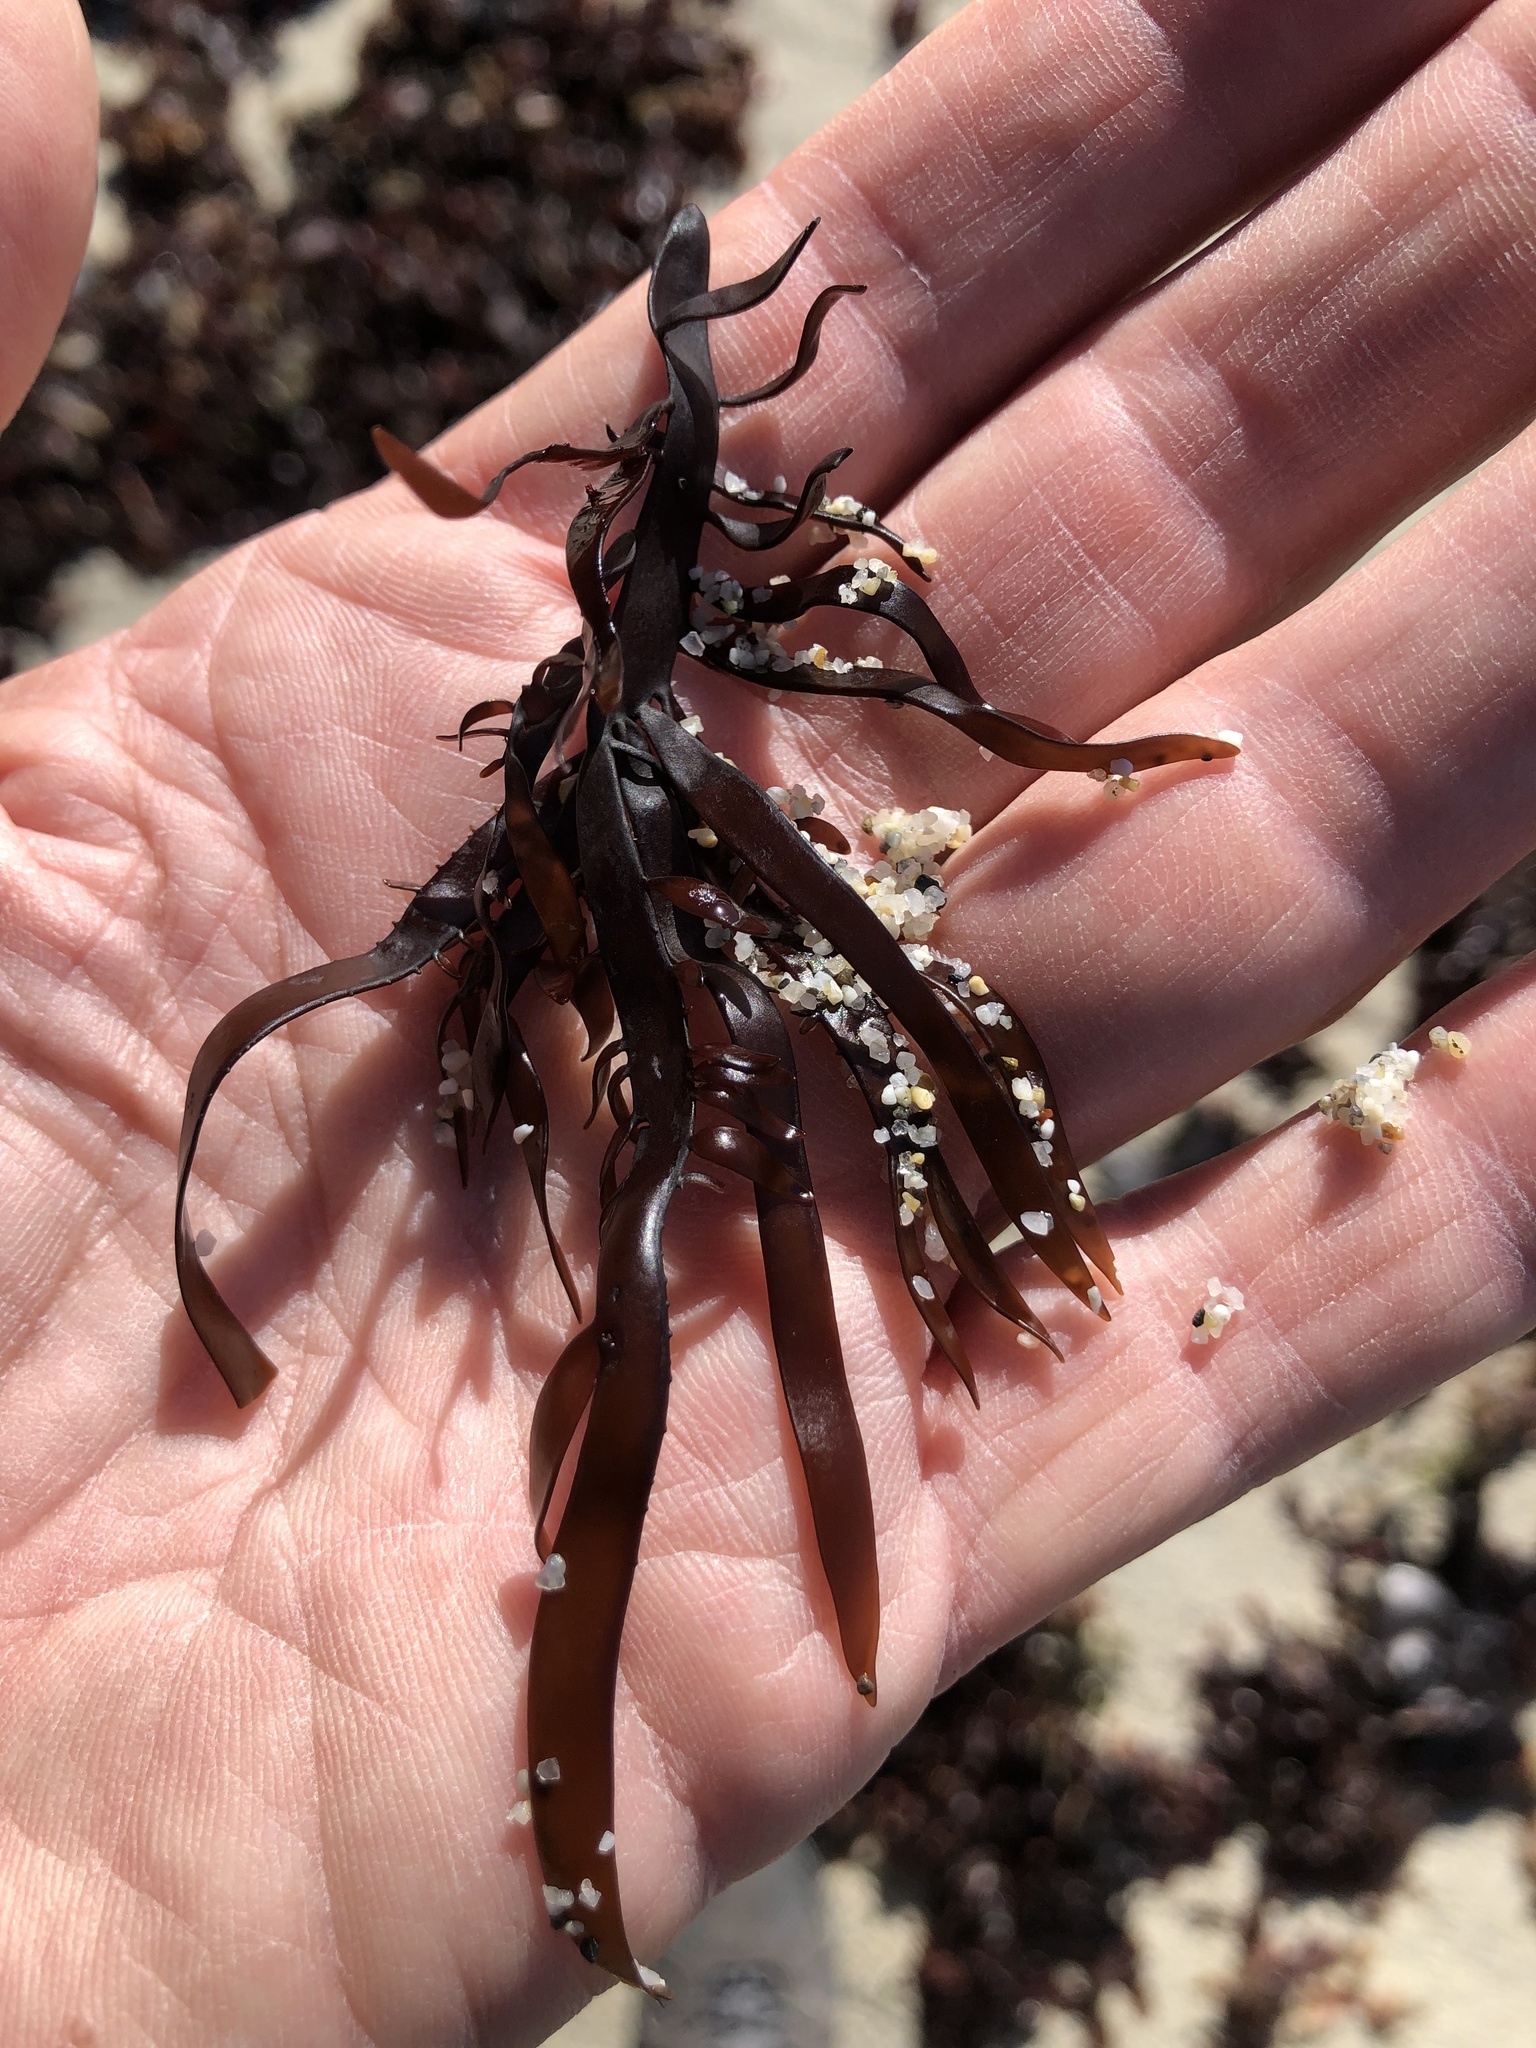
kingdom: Plantae
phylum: Rhodophyta
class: Florideophyceae
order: Halymeniales
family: Halymeniaceae
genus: Grateloupia
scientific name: Grateloupia Prionitis lanceolata
